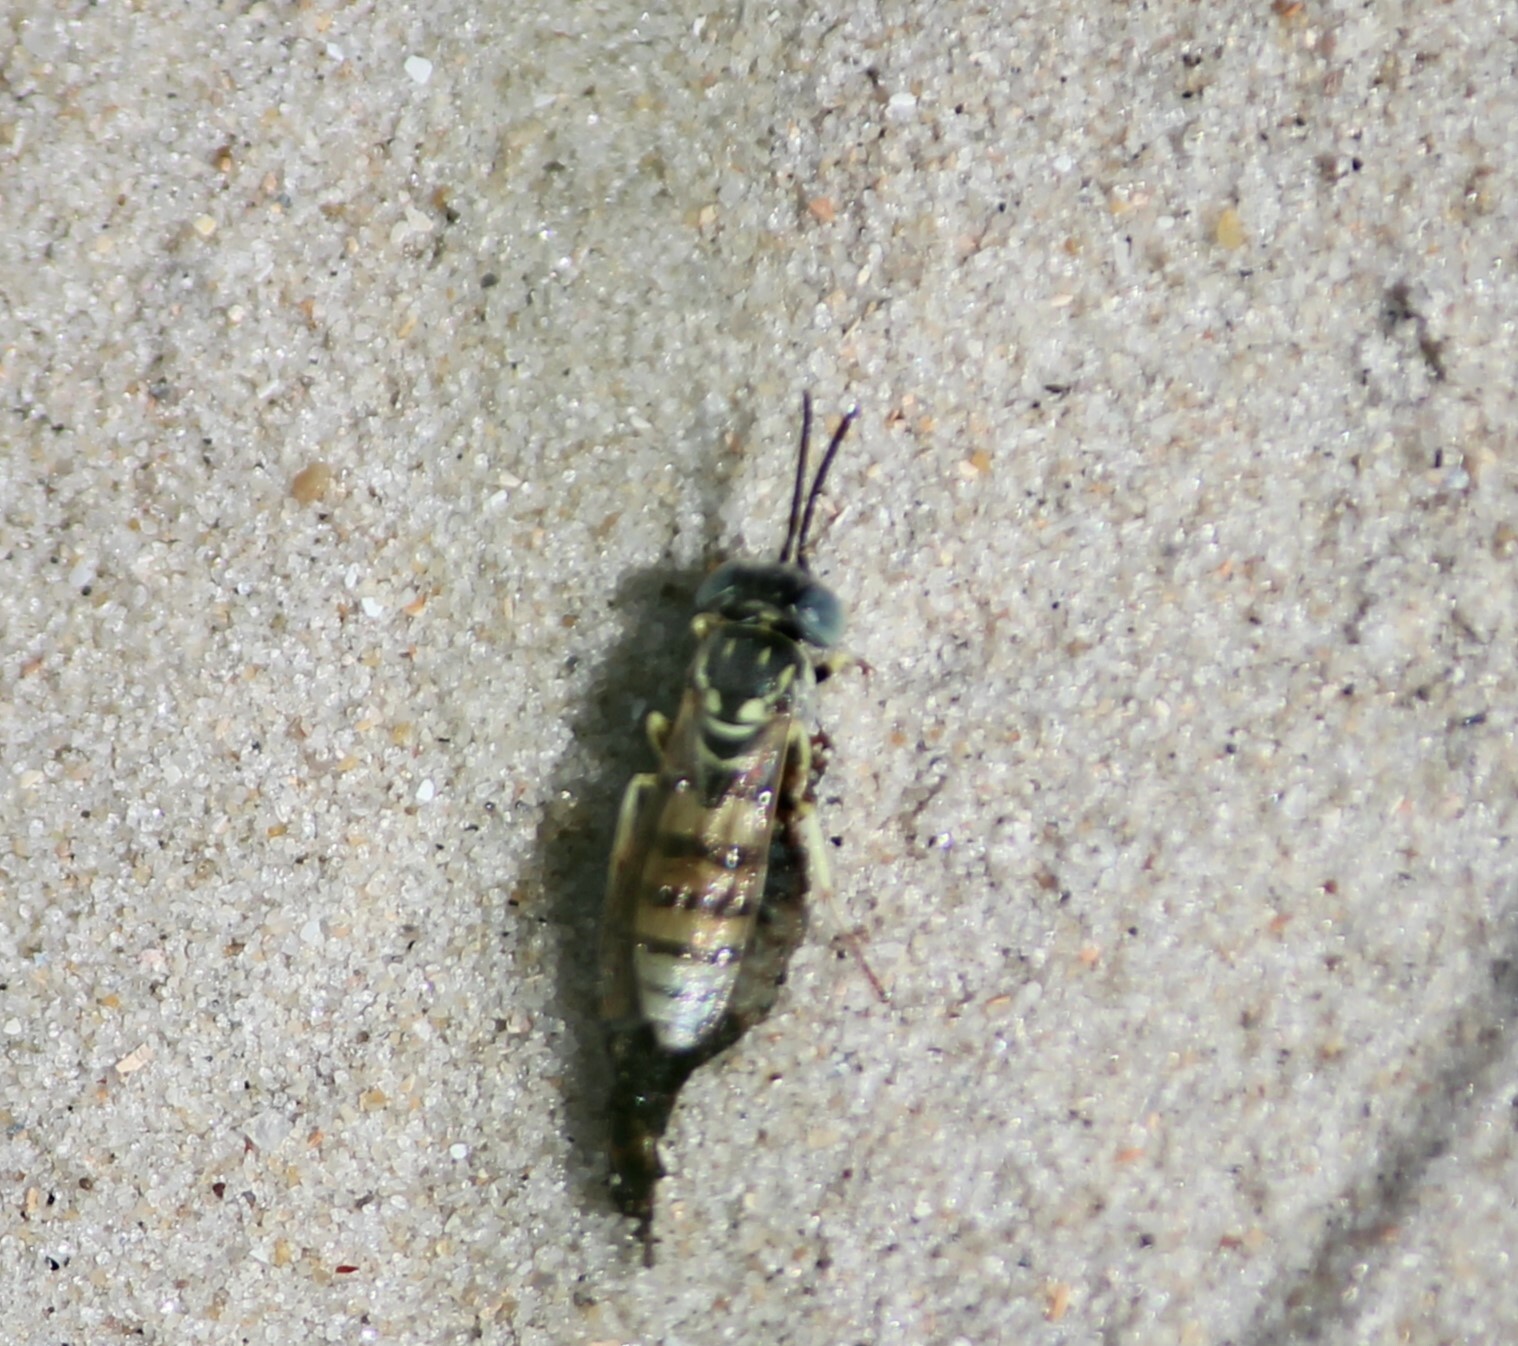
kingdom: Animalia
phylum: Arthropoda
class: Insecta
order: Hymenoptera
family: Crabronidae
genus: Microbembex
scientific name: Microbembex monodonta
